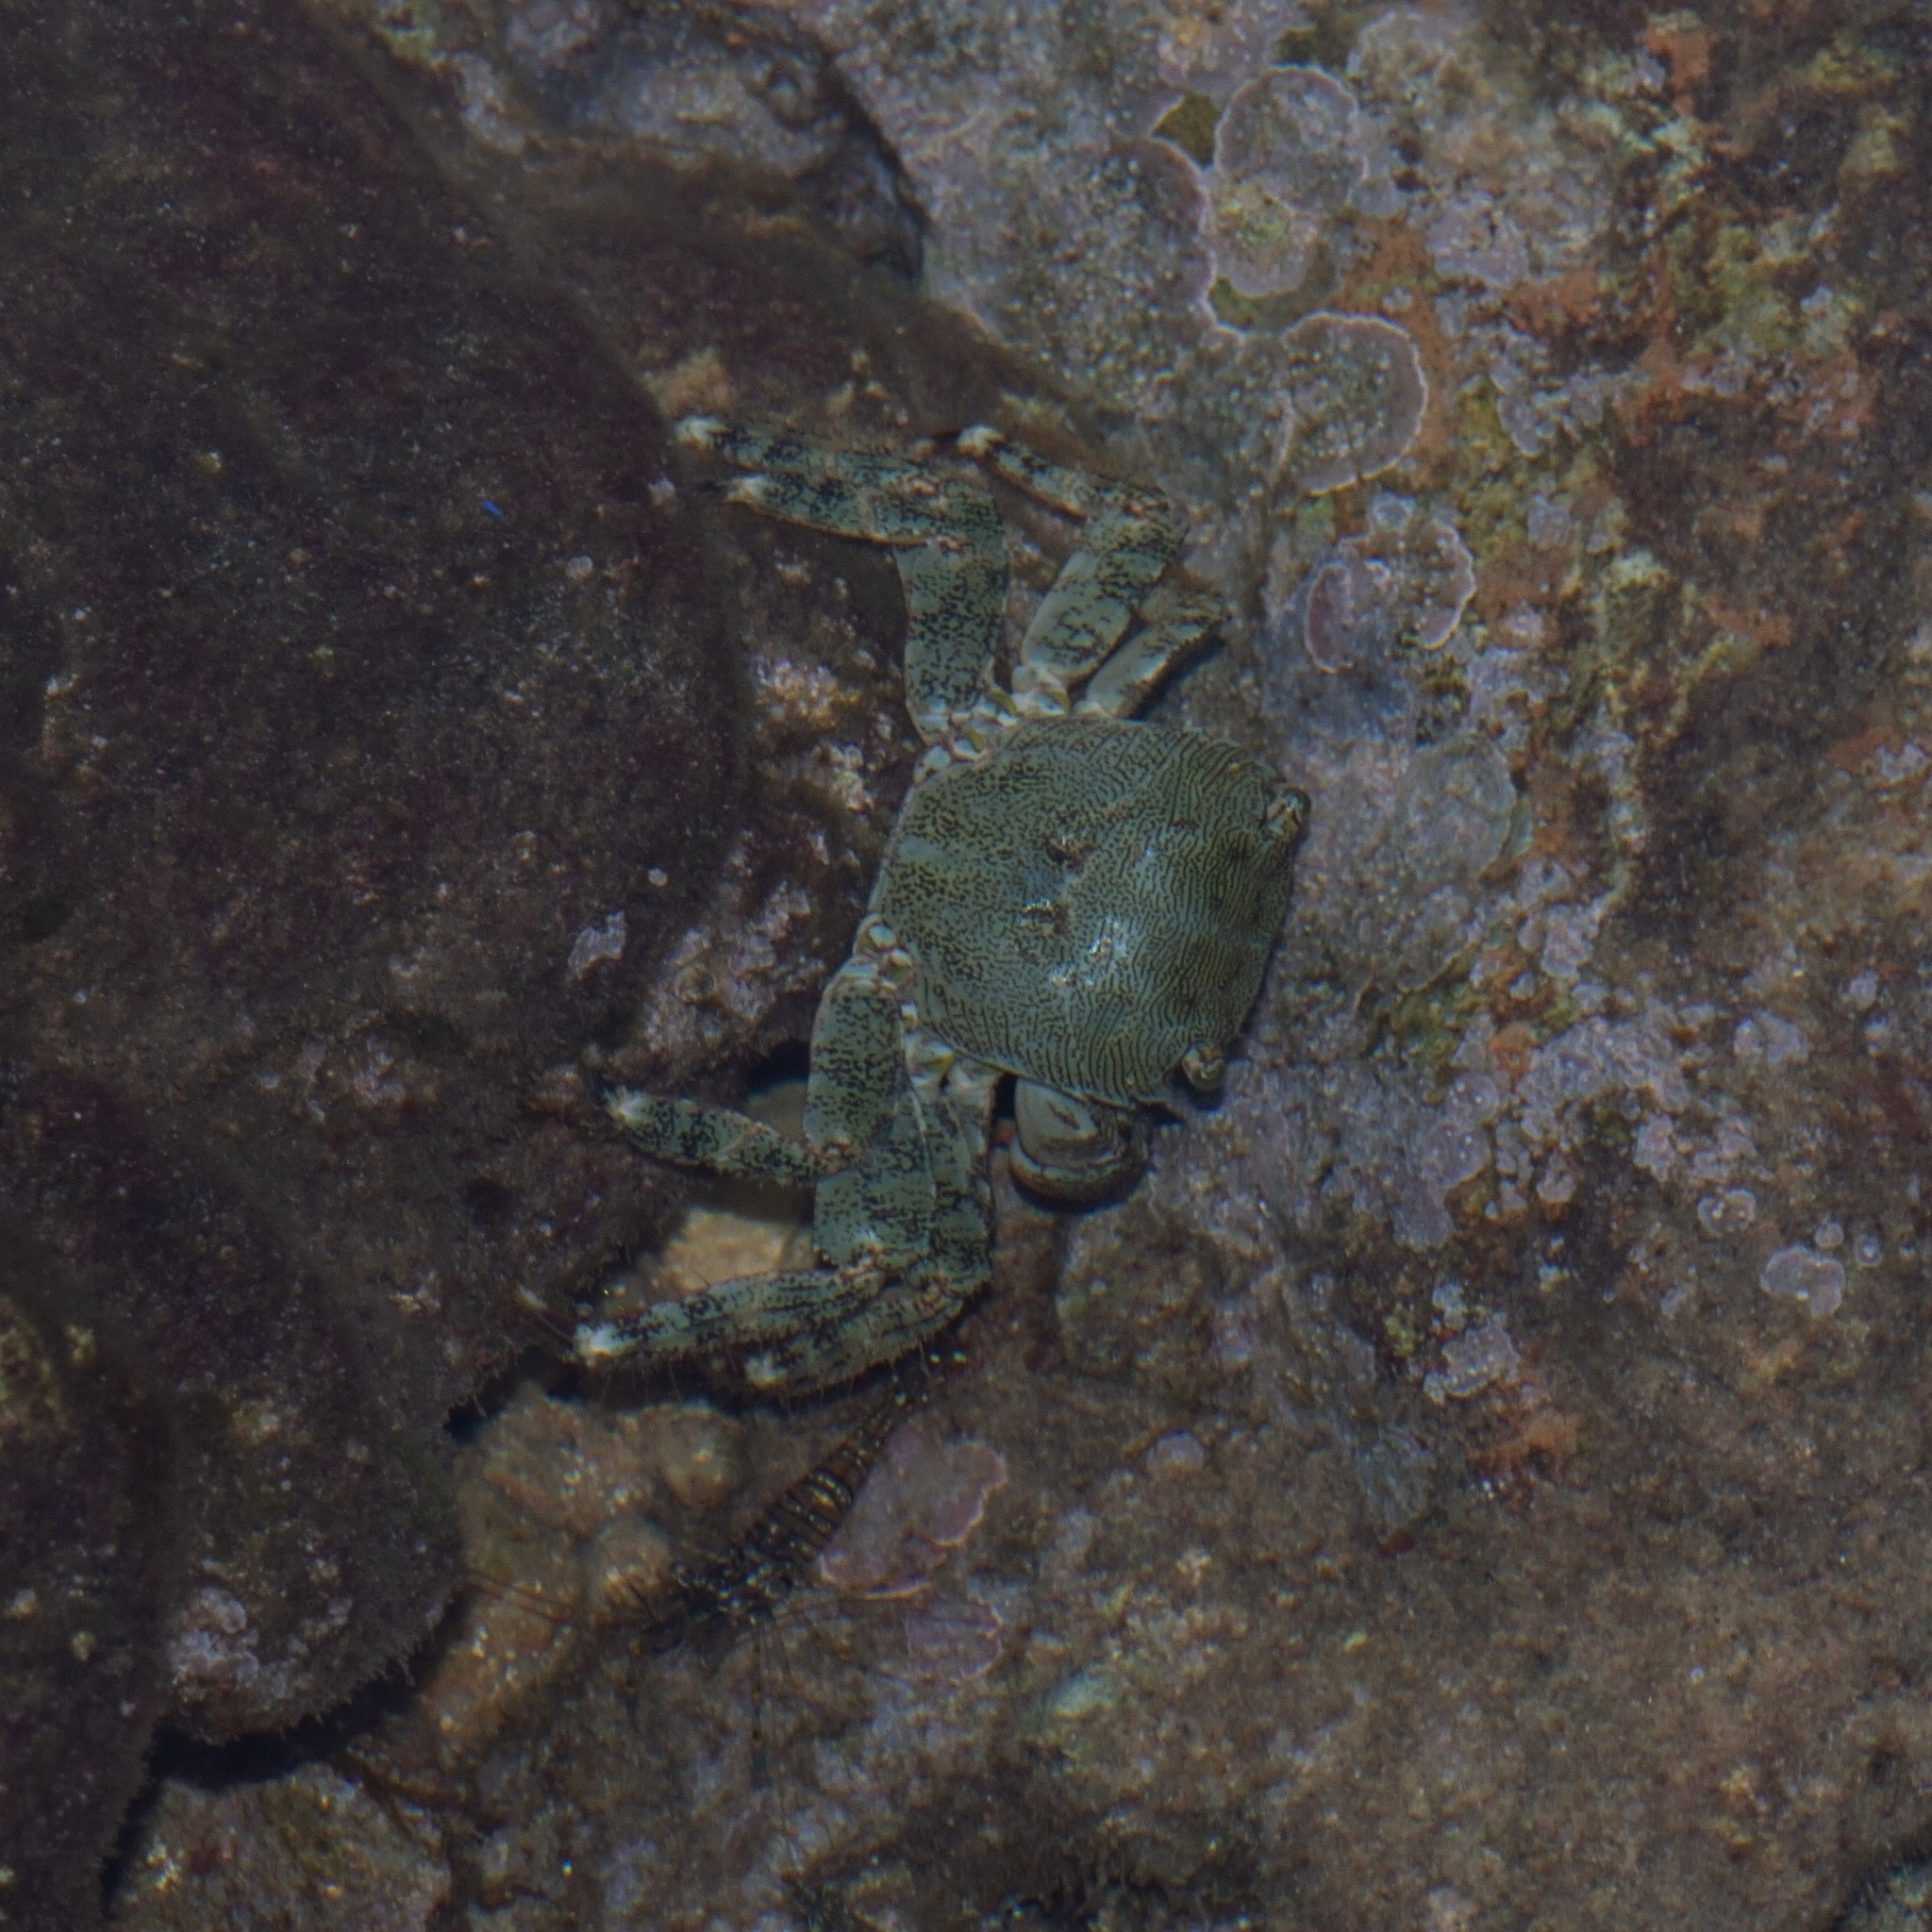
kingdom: Animalia
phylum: Arthropoda
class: Malacostraca
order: Decapoda
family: Grapsidae
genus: Pachygrapsus
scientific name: Pachygrapsus marmoratus
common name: Marbled rock crab
